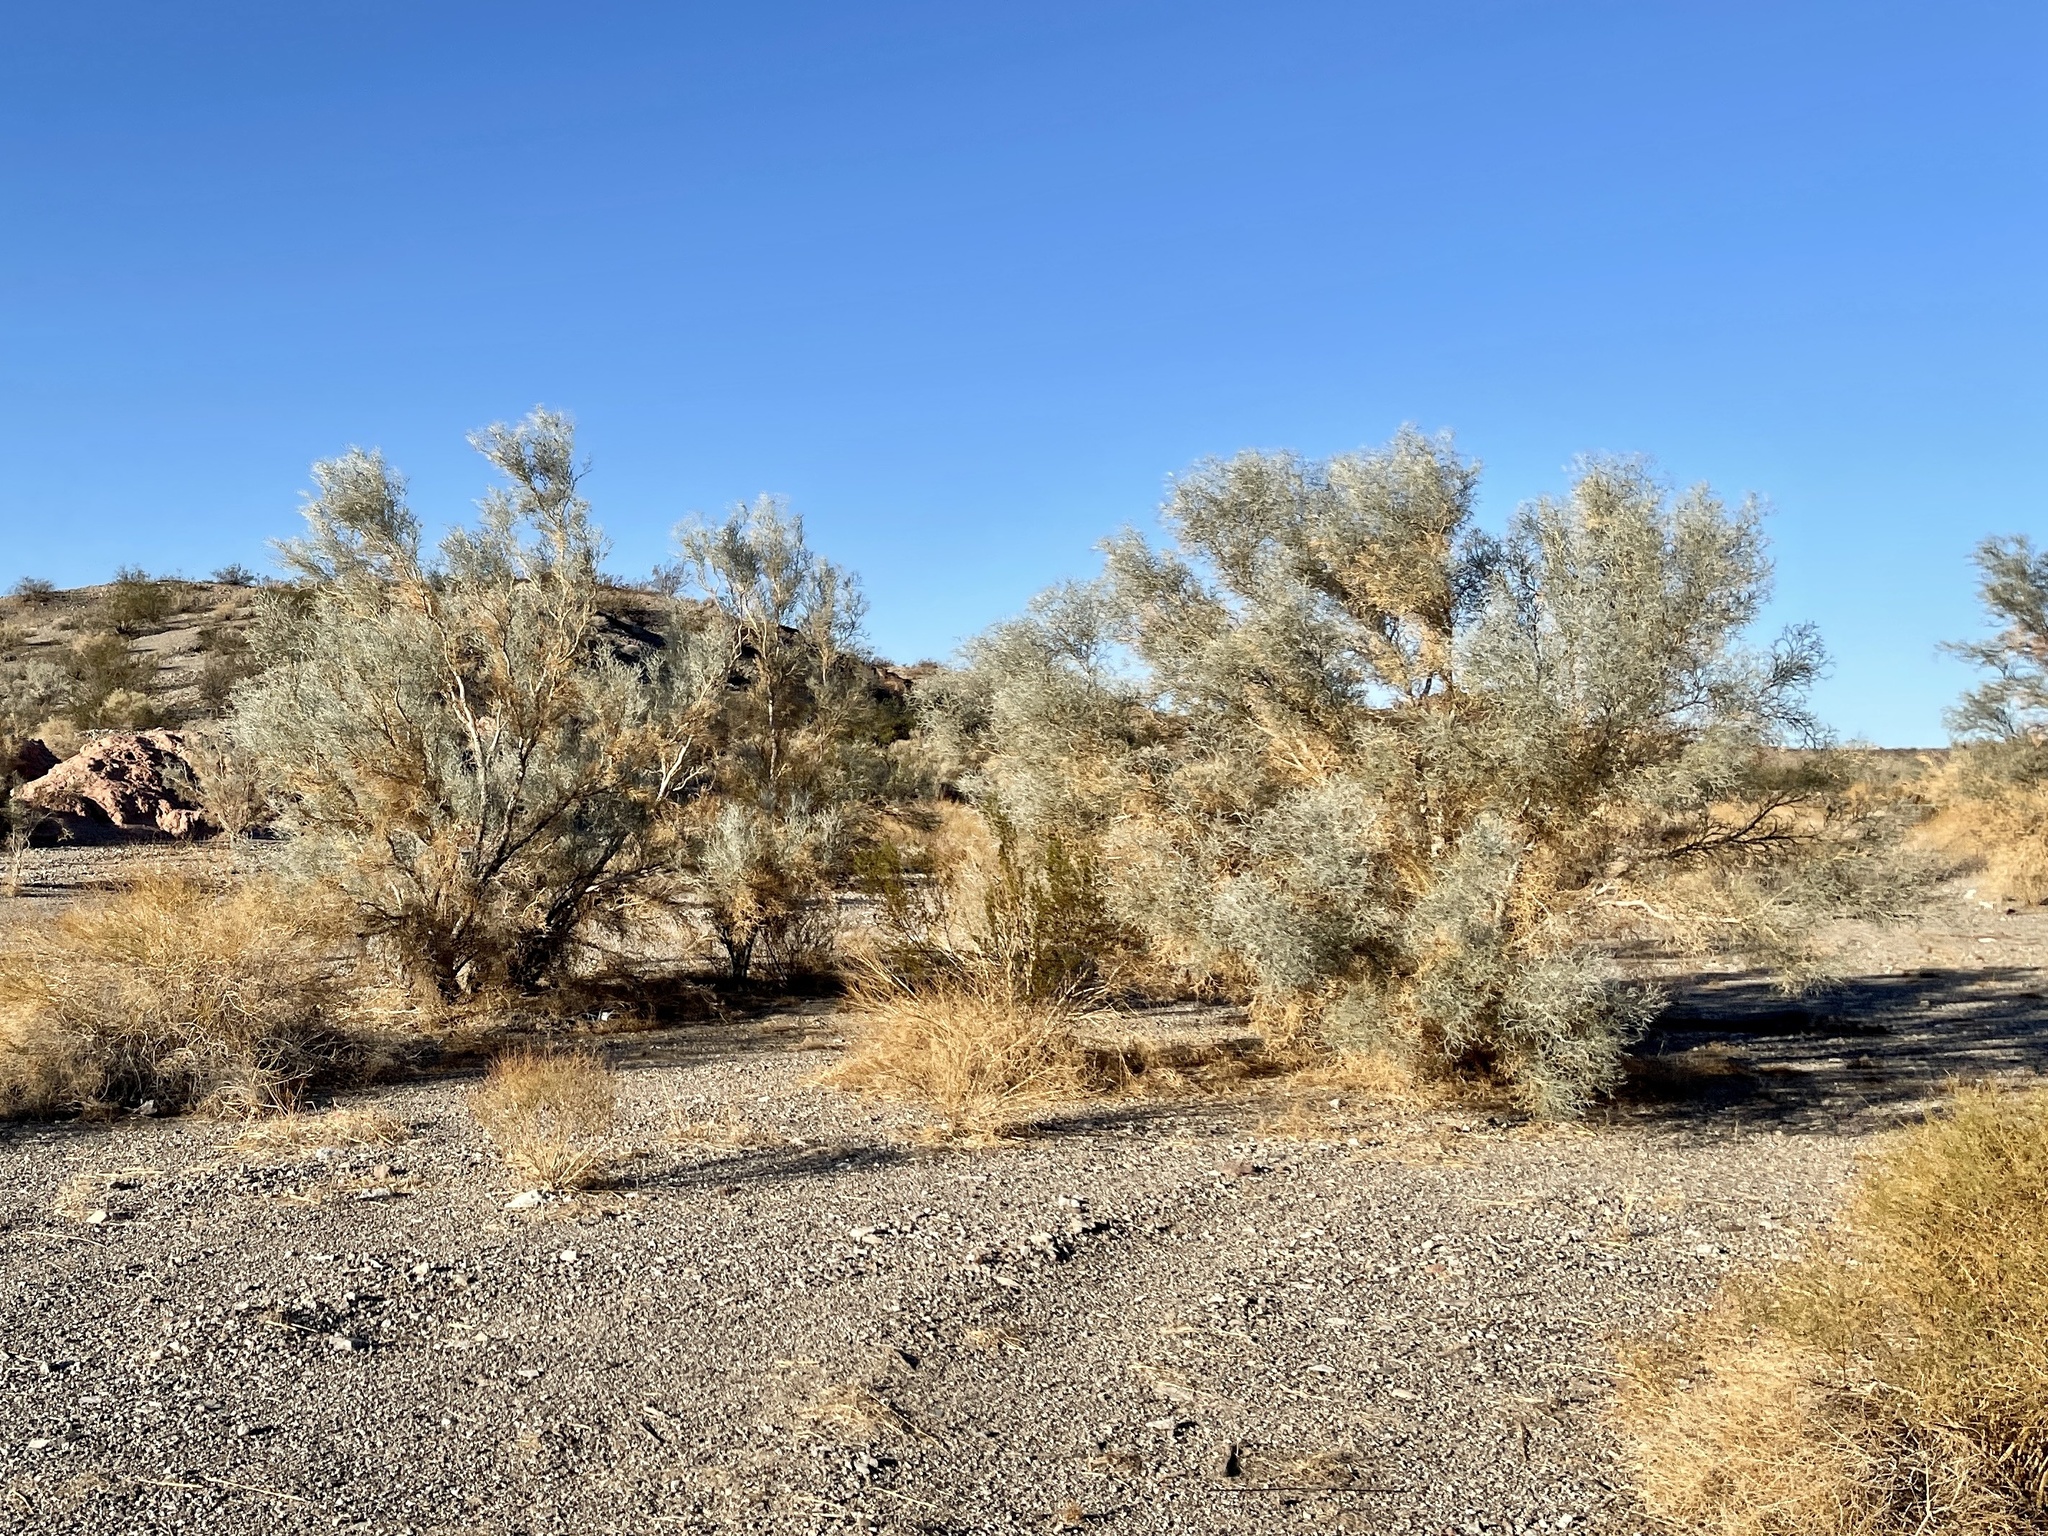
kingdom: Plantae
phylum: Tracheophyta
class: Magnoliopsida
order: Fabales
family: Fabaceae
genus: Psorothamnus
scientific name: Psorothamnus spinosus
